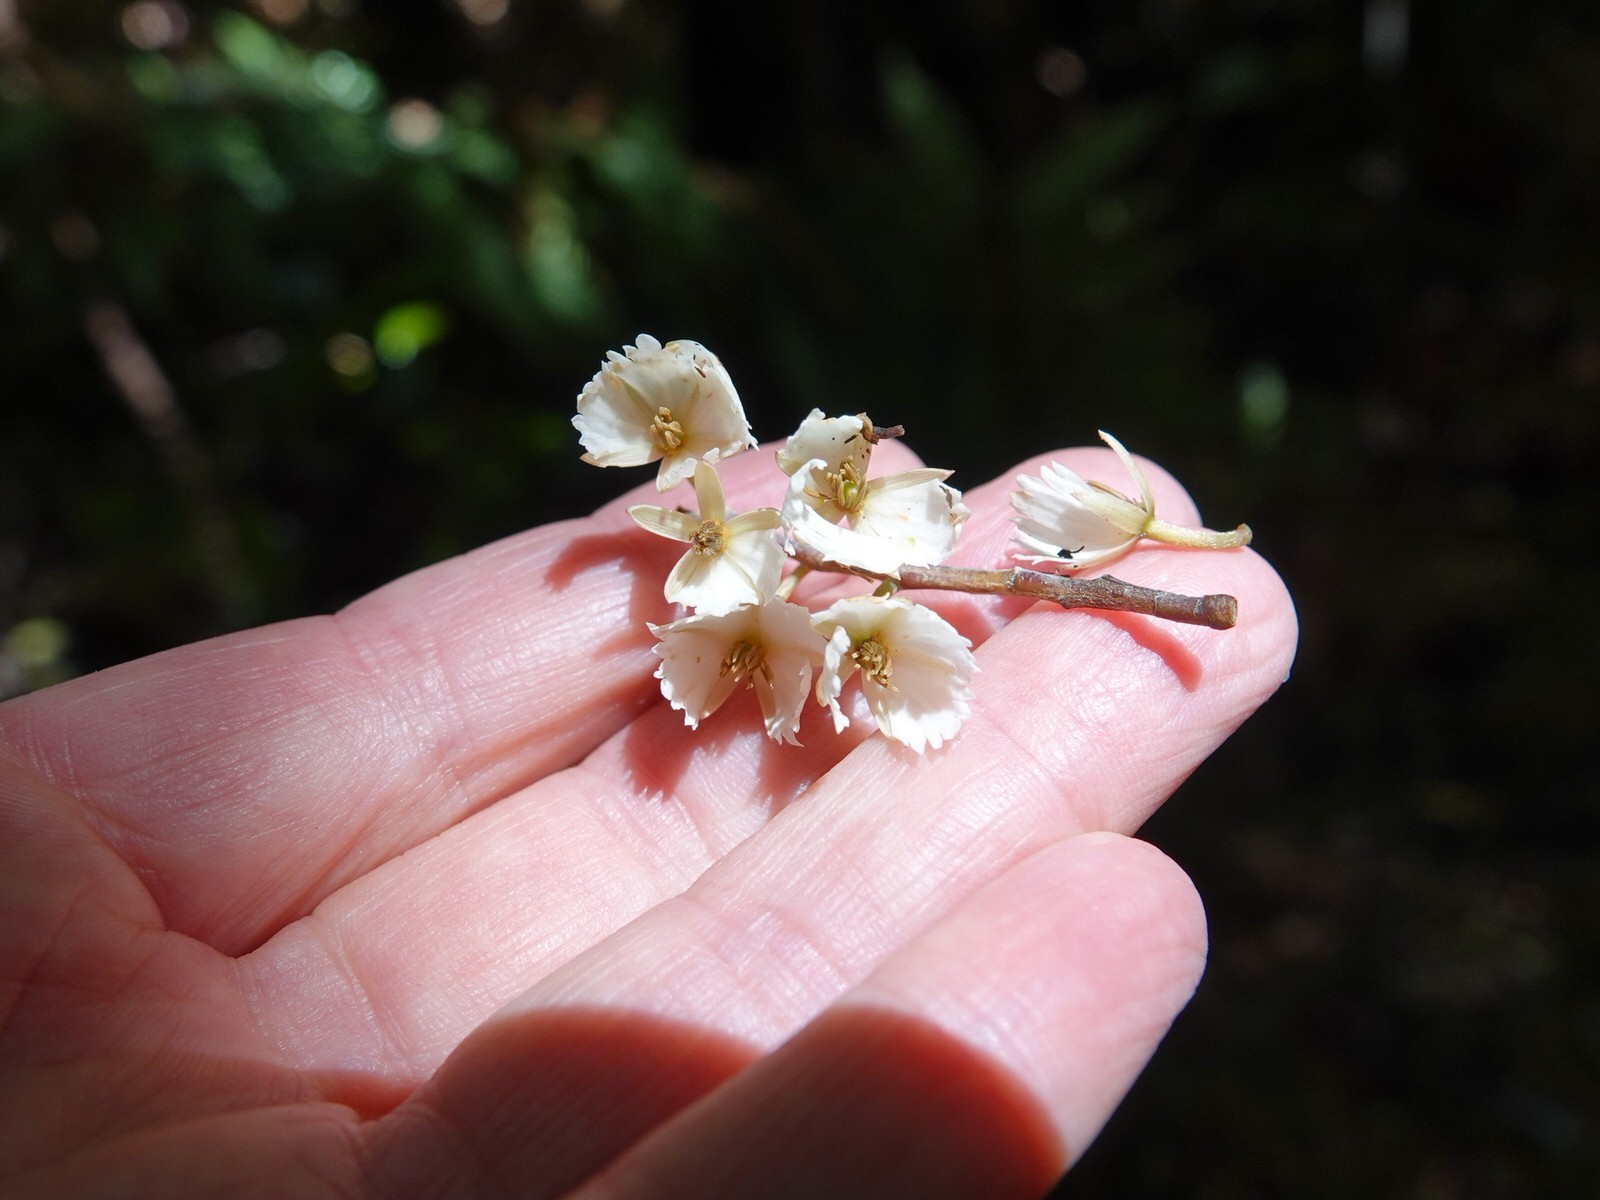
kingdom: Plantae
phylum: Tracheophyta
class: Magnoliopsida
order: Oxalidales
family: Elaeocarpaceae
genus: Elaeocarpus
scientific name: Elaeocarpus dentatus
